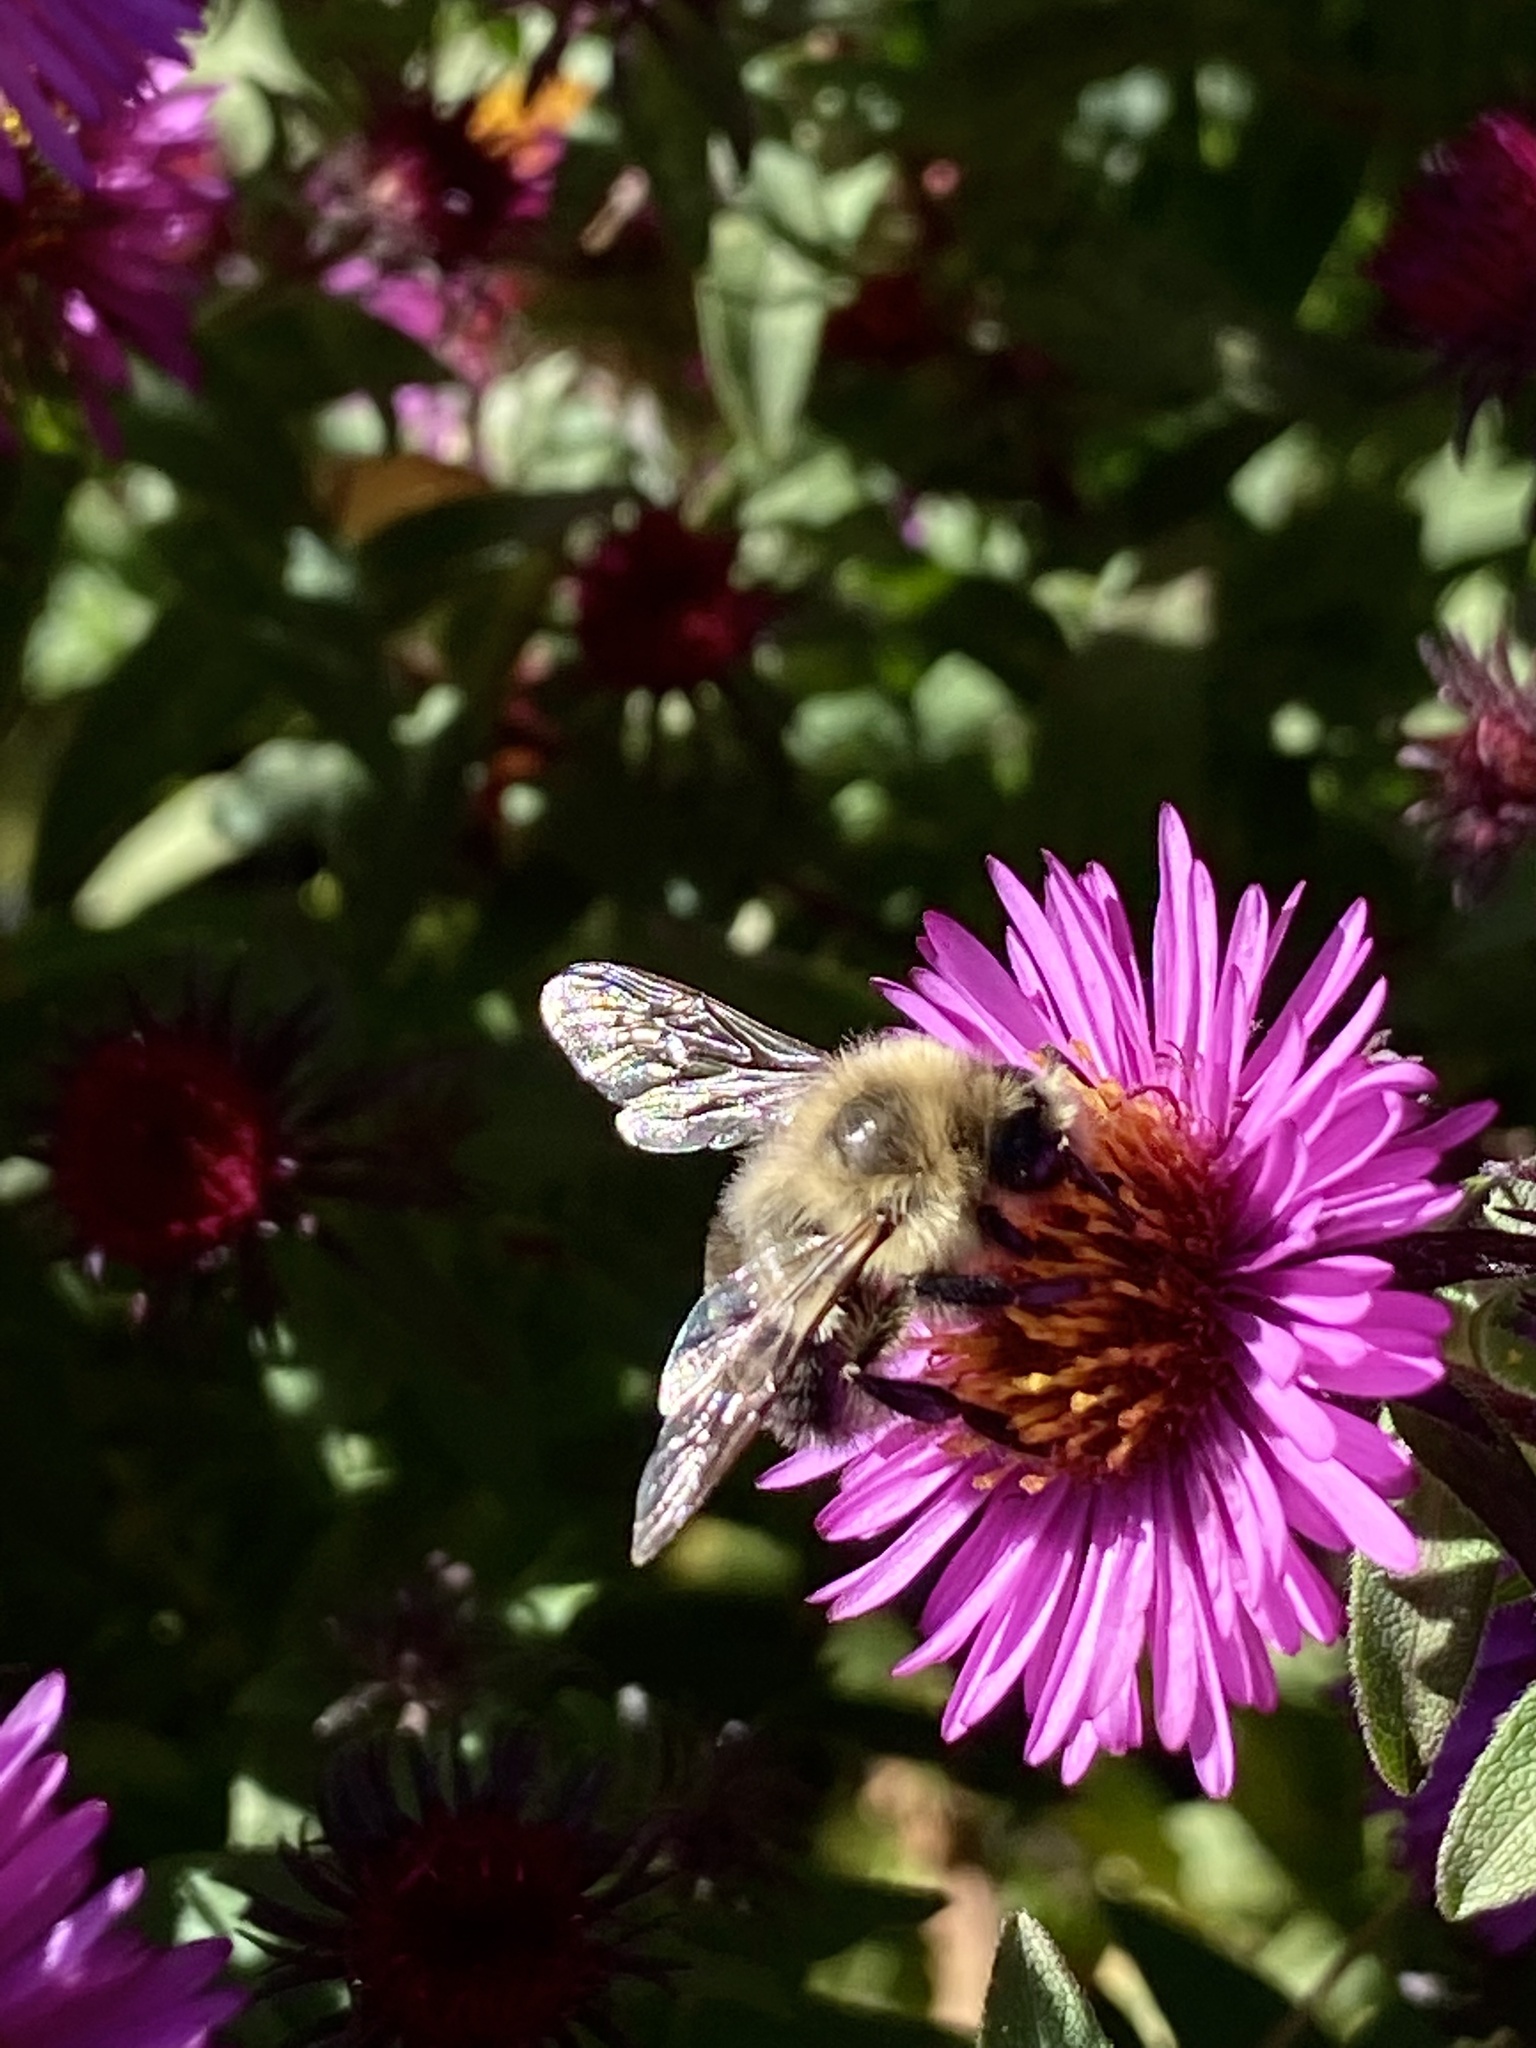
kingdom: Animalia
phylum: Arthropoda
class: Insecta
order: Hymenoptera
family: Apidae
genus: Bombus
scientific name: Bombus impatiens
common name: Common eastern bumble bee
